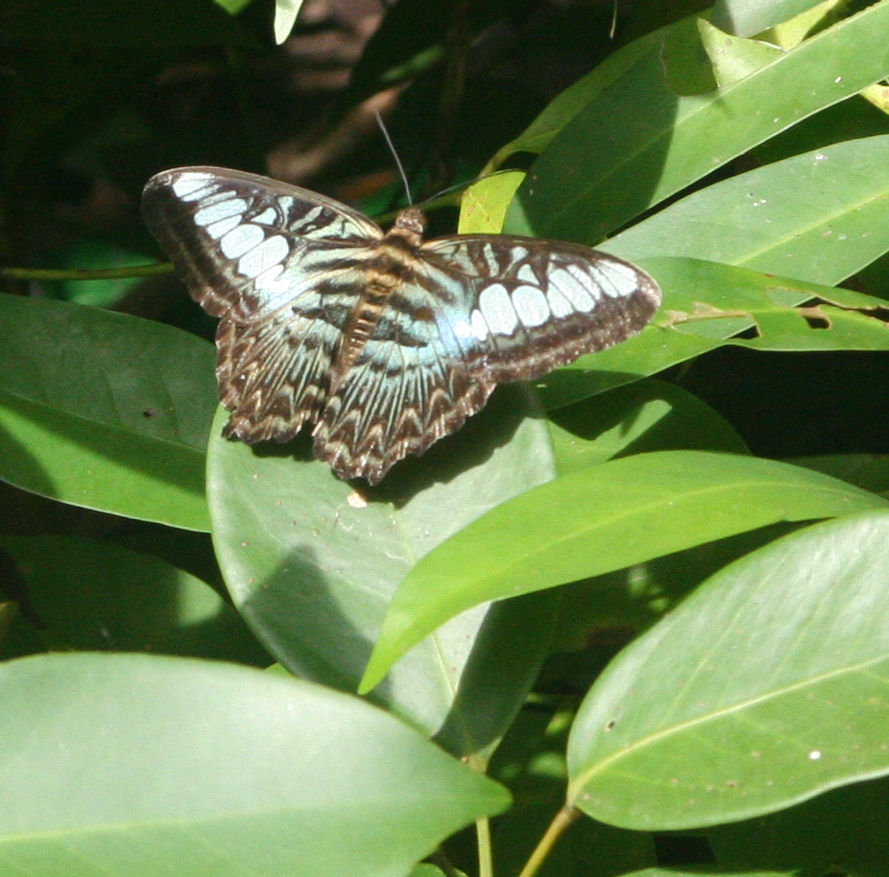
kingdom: Animalia
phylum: Arthropoda
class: Insecta
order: Lepidoptera
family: Nymphalidae
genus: Kallima
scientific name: Kallima sylvia
